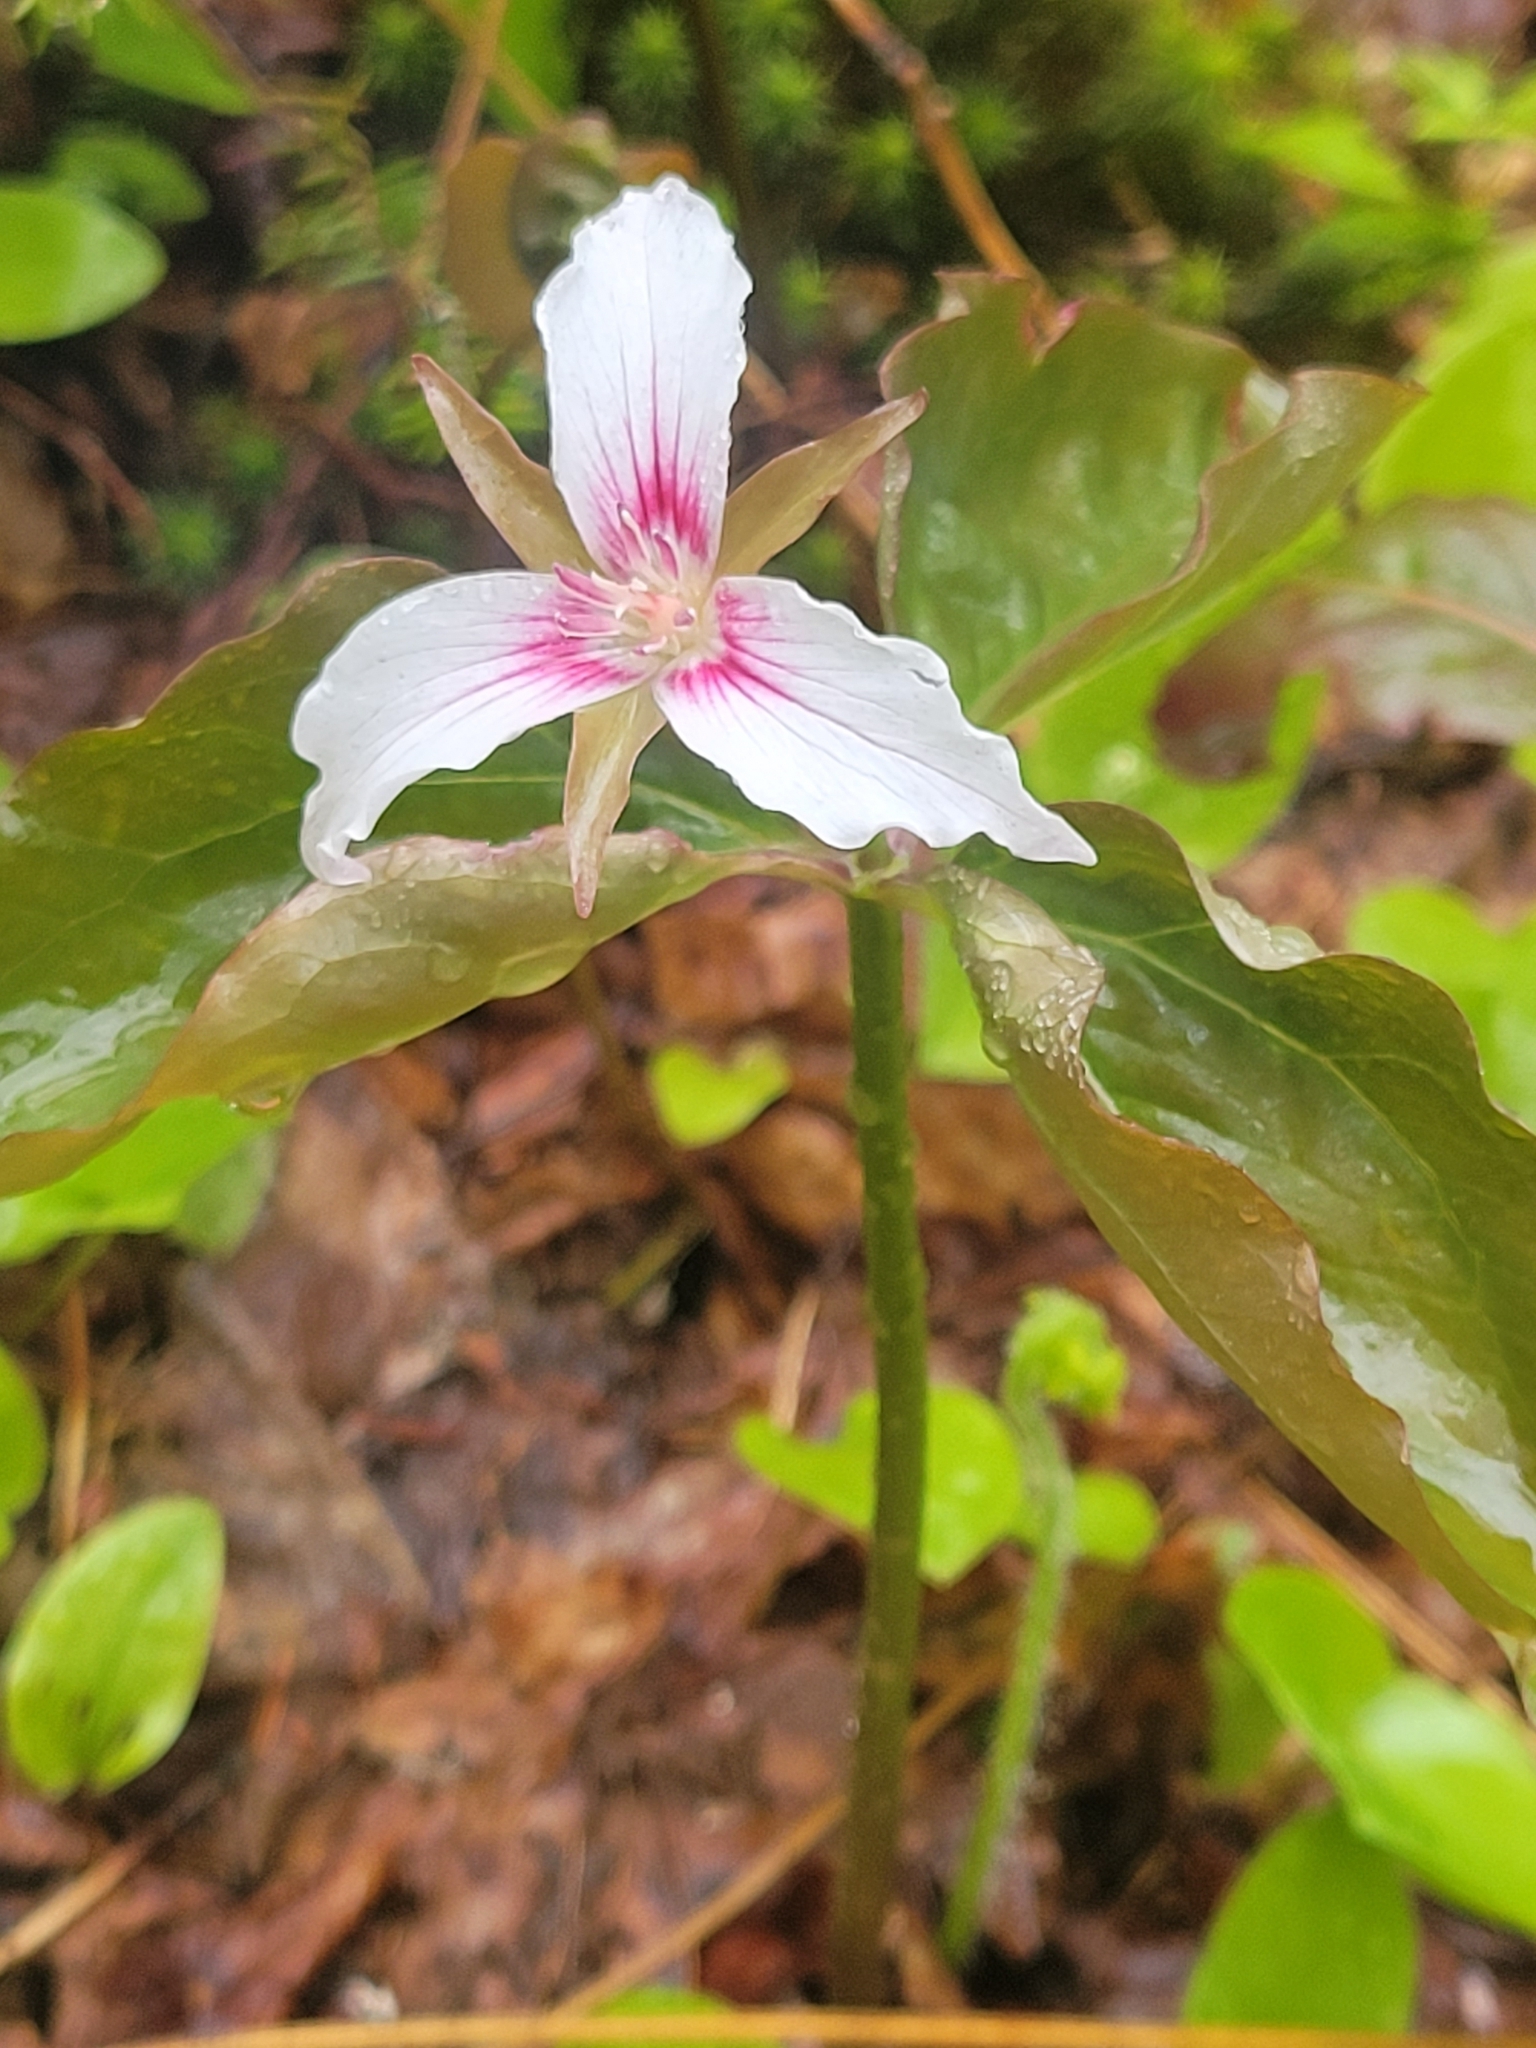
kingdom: Plantae
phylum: Tracheophyta
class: Liliopsida
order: Liliales
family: Melanthiaceae
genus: Trillium
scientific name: Trillium undulatum
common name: Paint trillium
